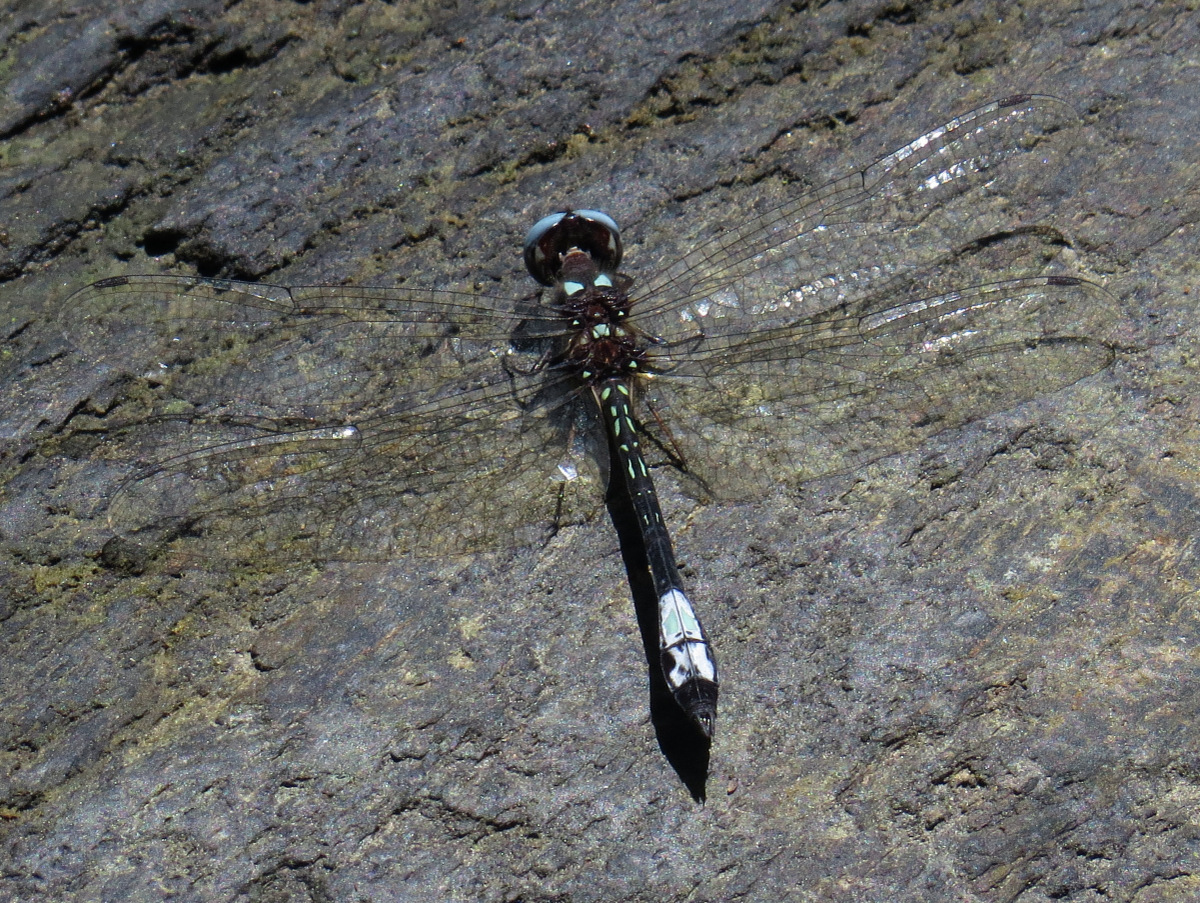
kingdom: Animalia
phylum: Arthropoda
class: Insecta
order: Odonata
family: Libellulidae
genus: Macrothemis
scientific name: Macrothemis pseudimitans
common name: White-tailed sylph
